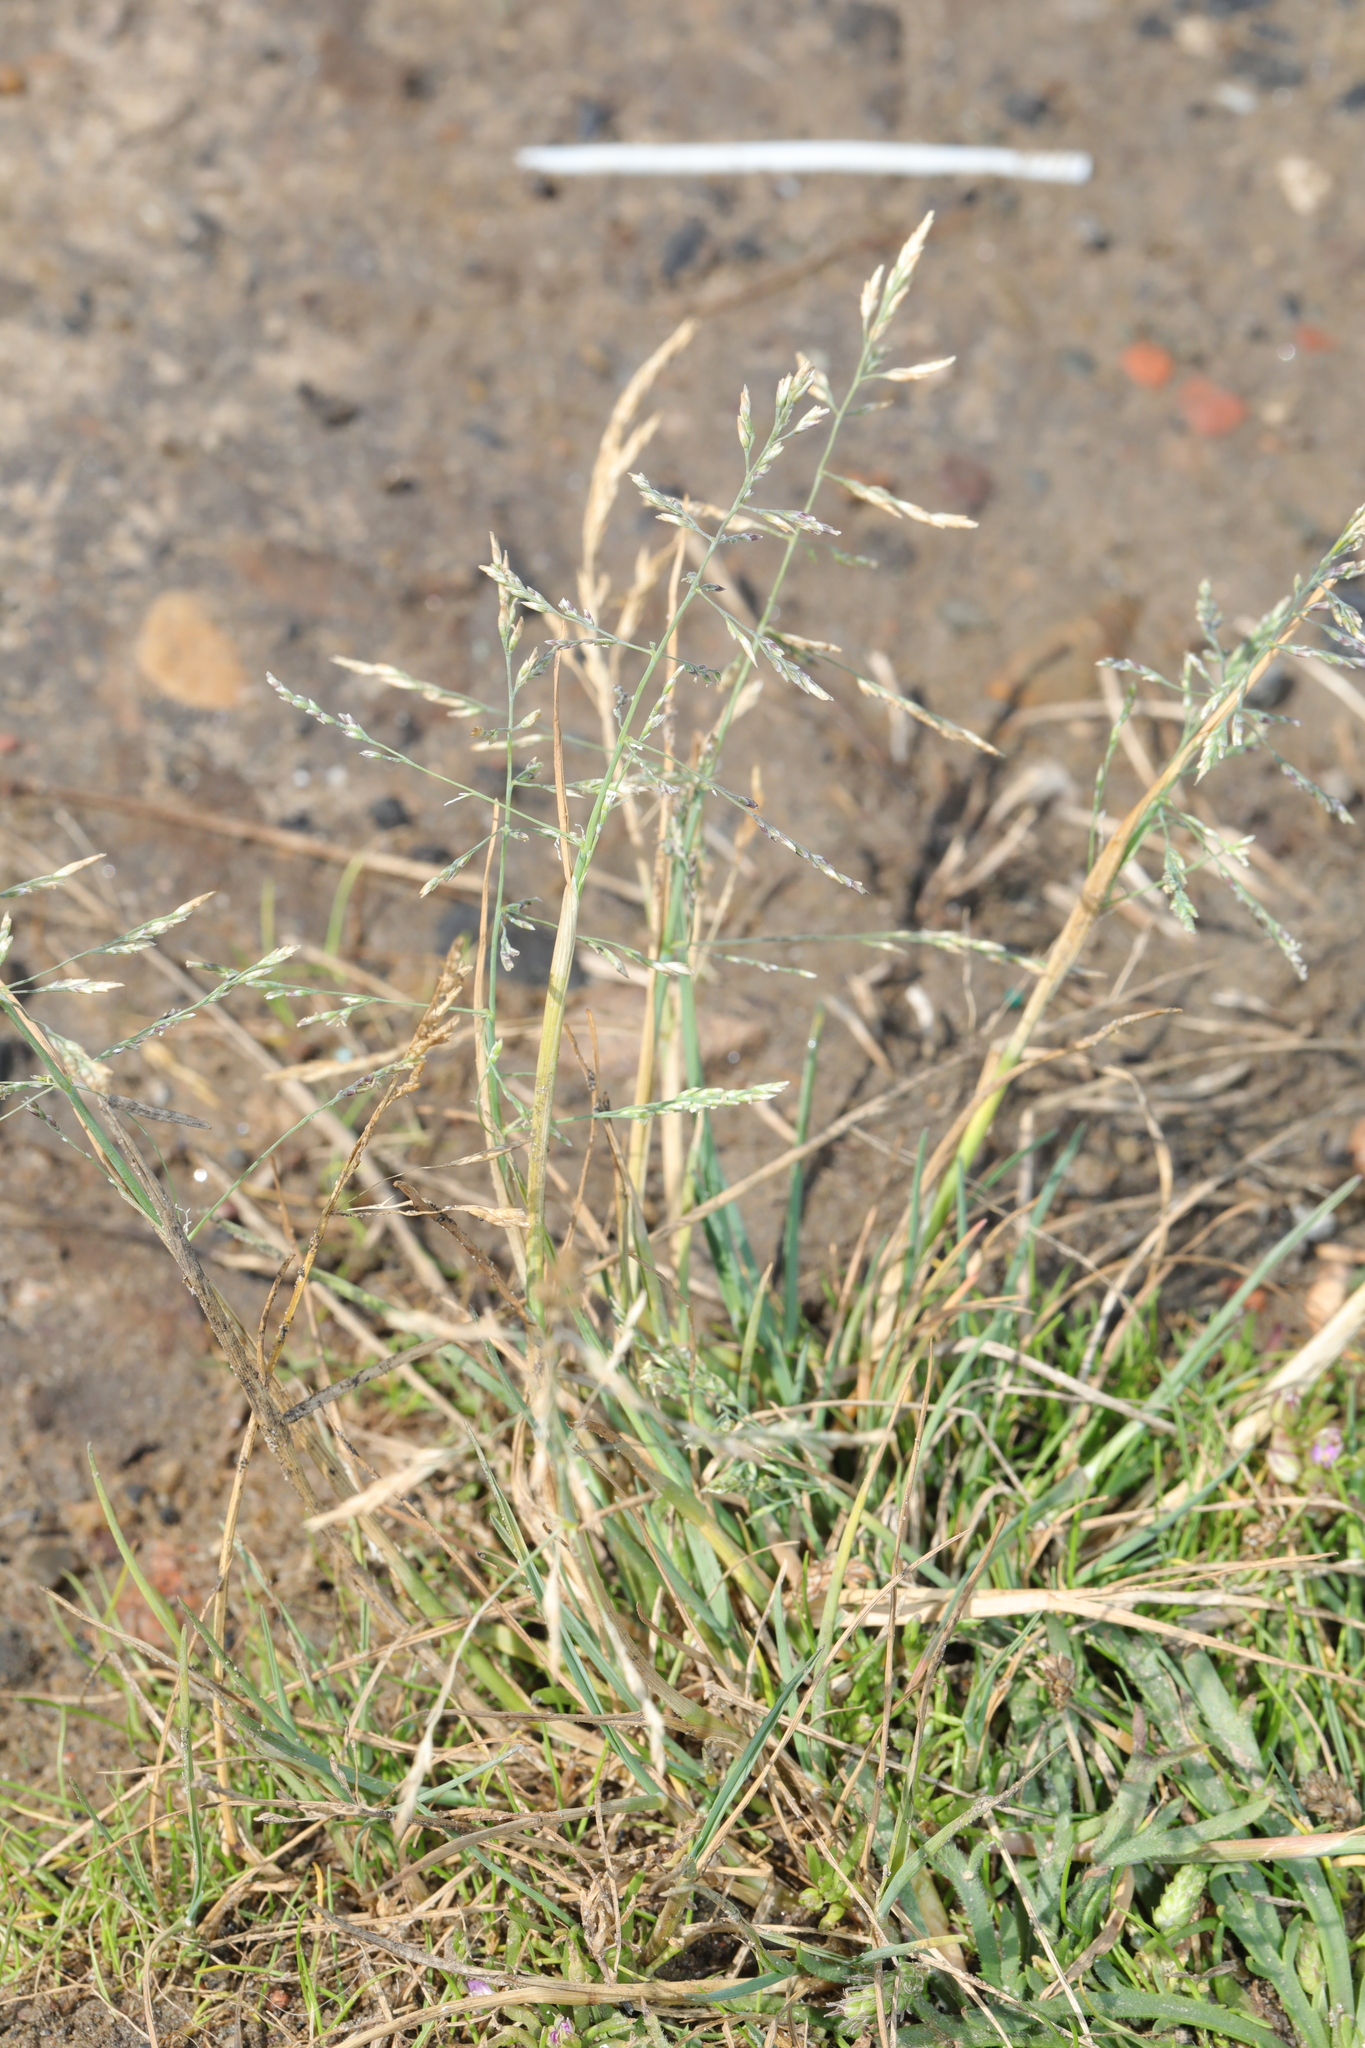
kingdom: Plantae
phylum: Tracheophyta
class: Liliopsida
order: Poales
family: Poaceae
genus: Puccinellia
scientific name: Puccinellia distans
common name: Weeping alkaligrass
